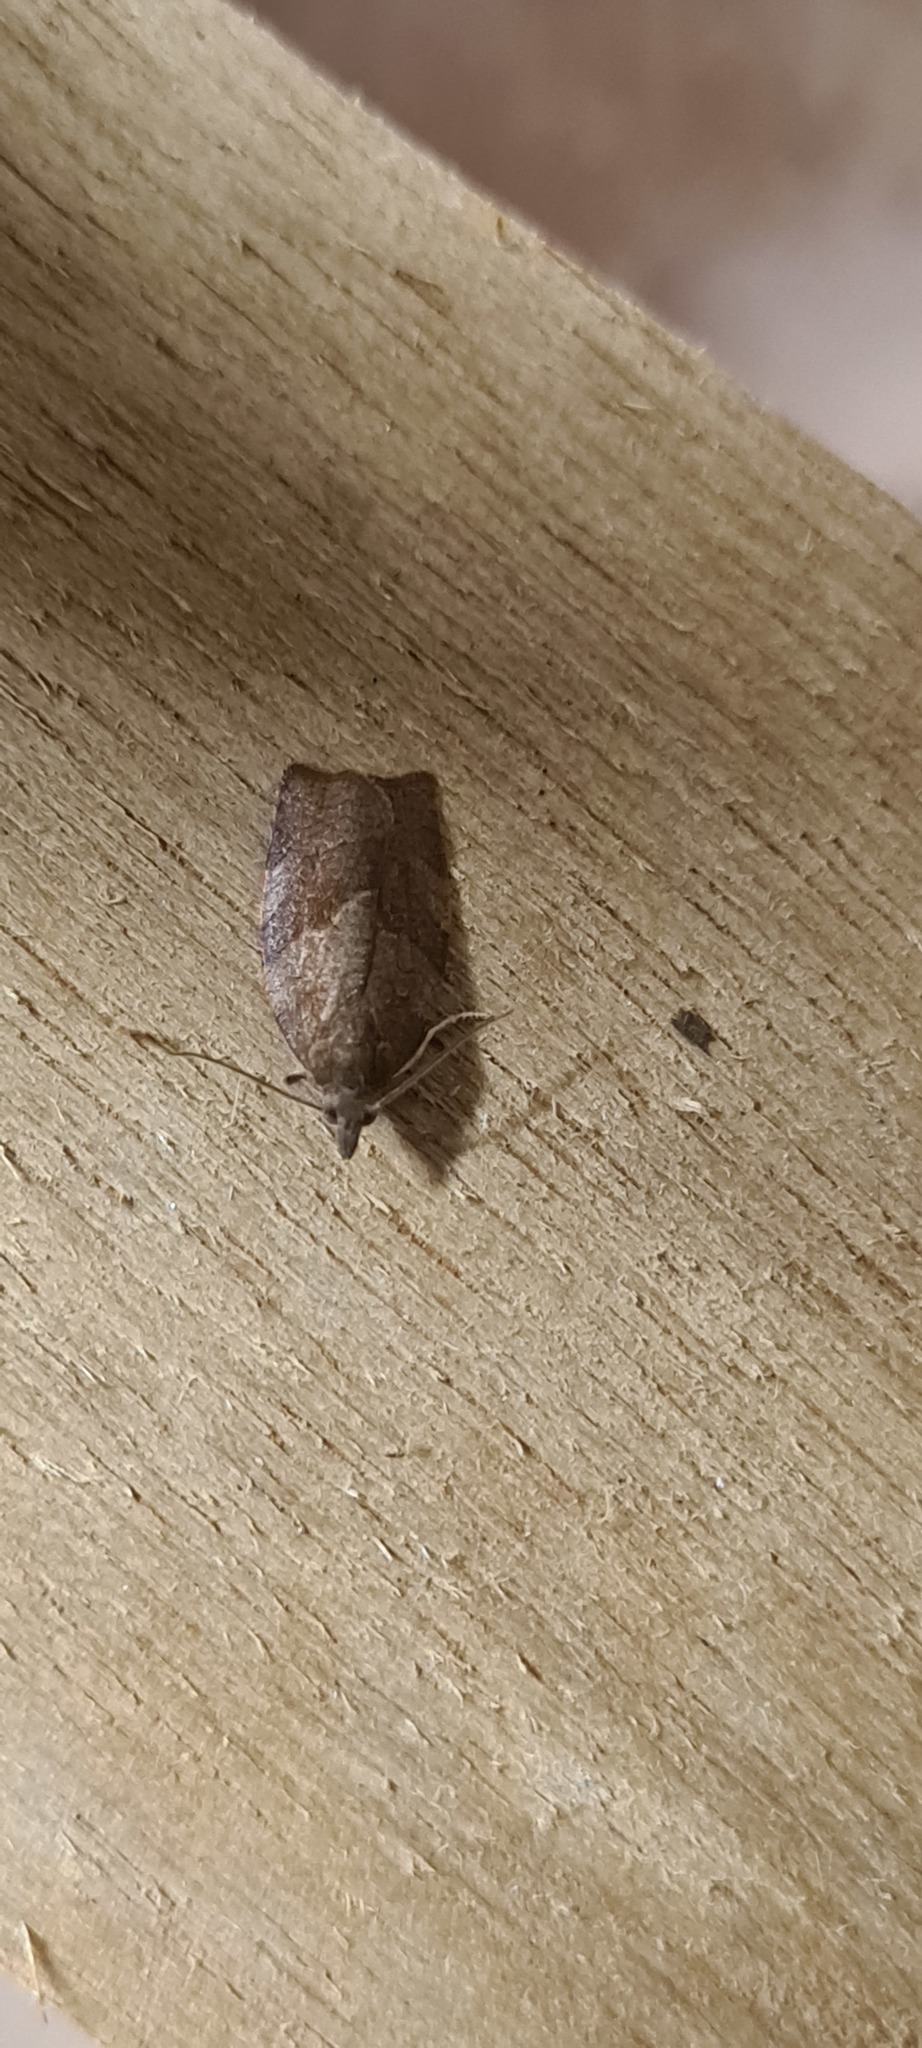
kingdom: Animalia
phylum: Arthropoda
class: Insecta
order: Lepidoptera
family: Tortricidae
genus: Pandemis
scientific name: Pandemis heparana
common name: Dark fruit-tree tortrix
